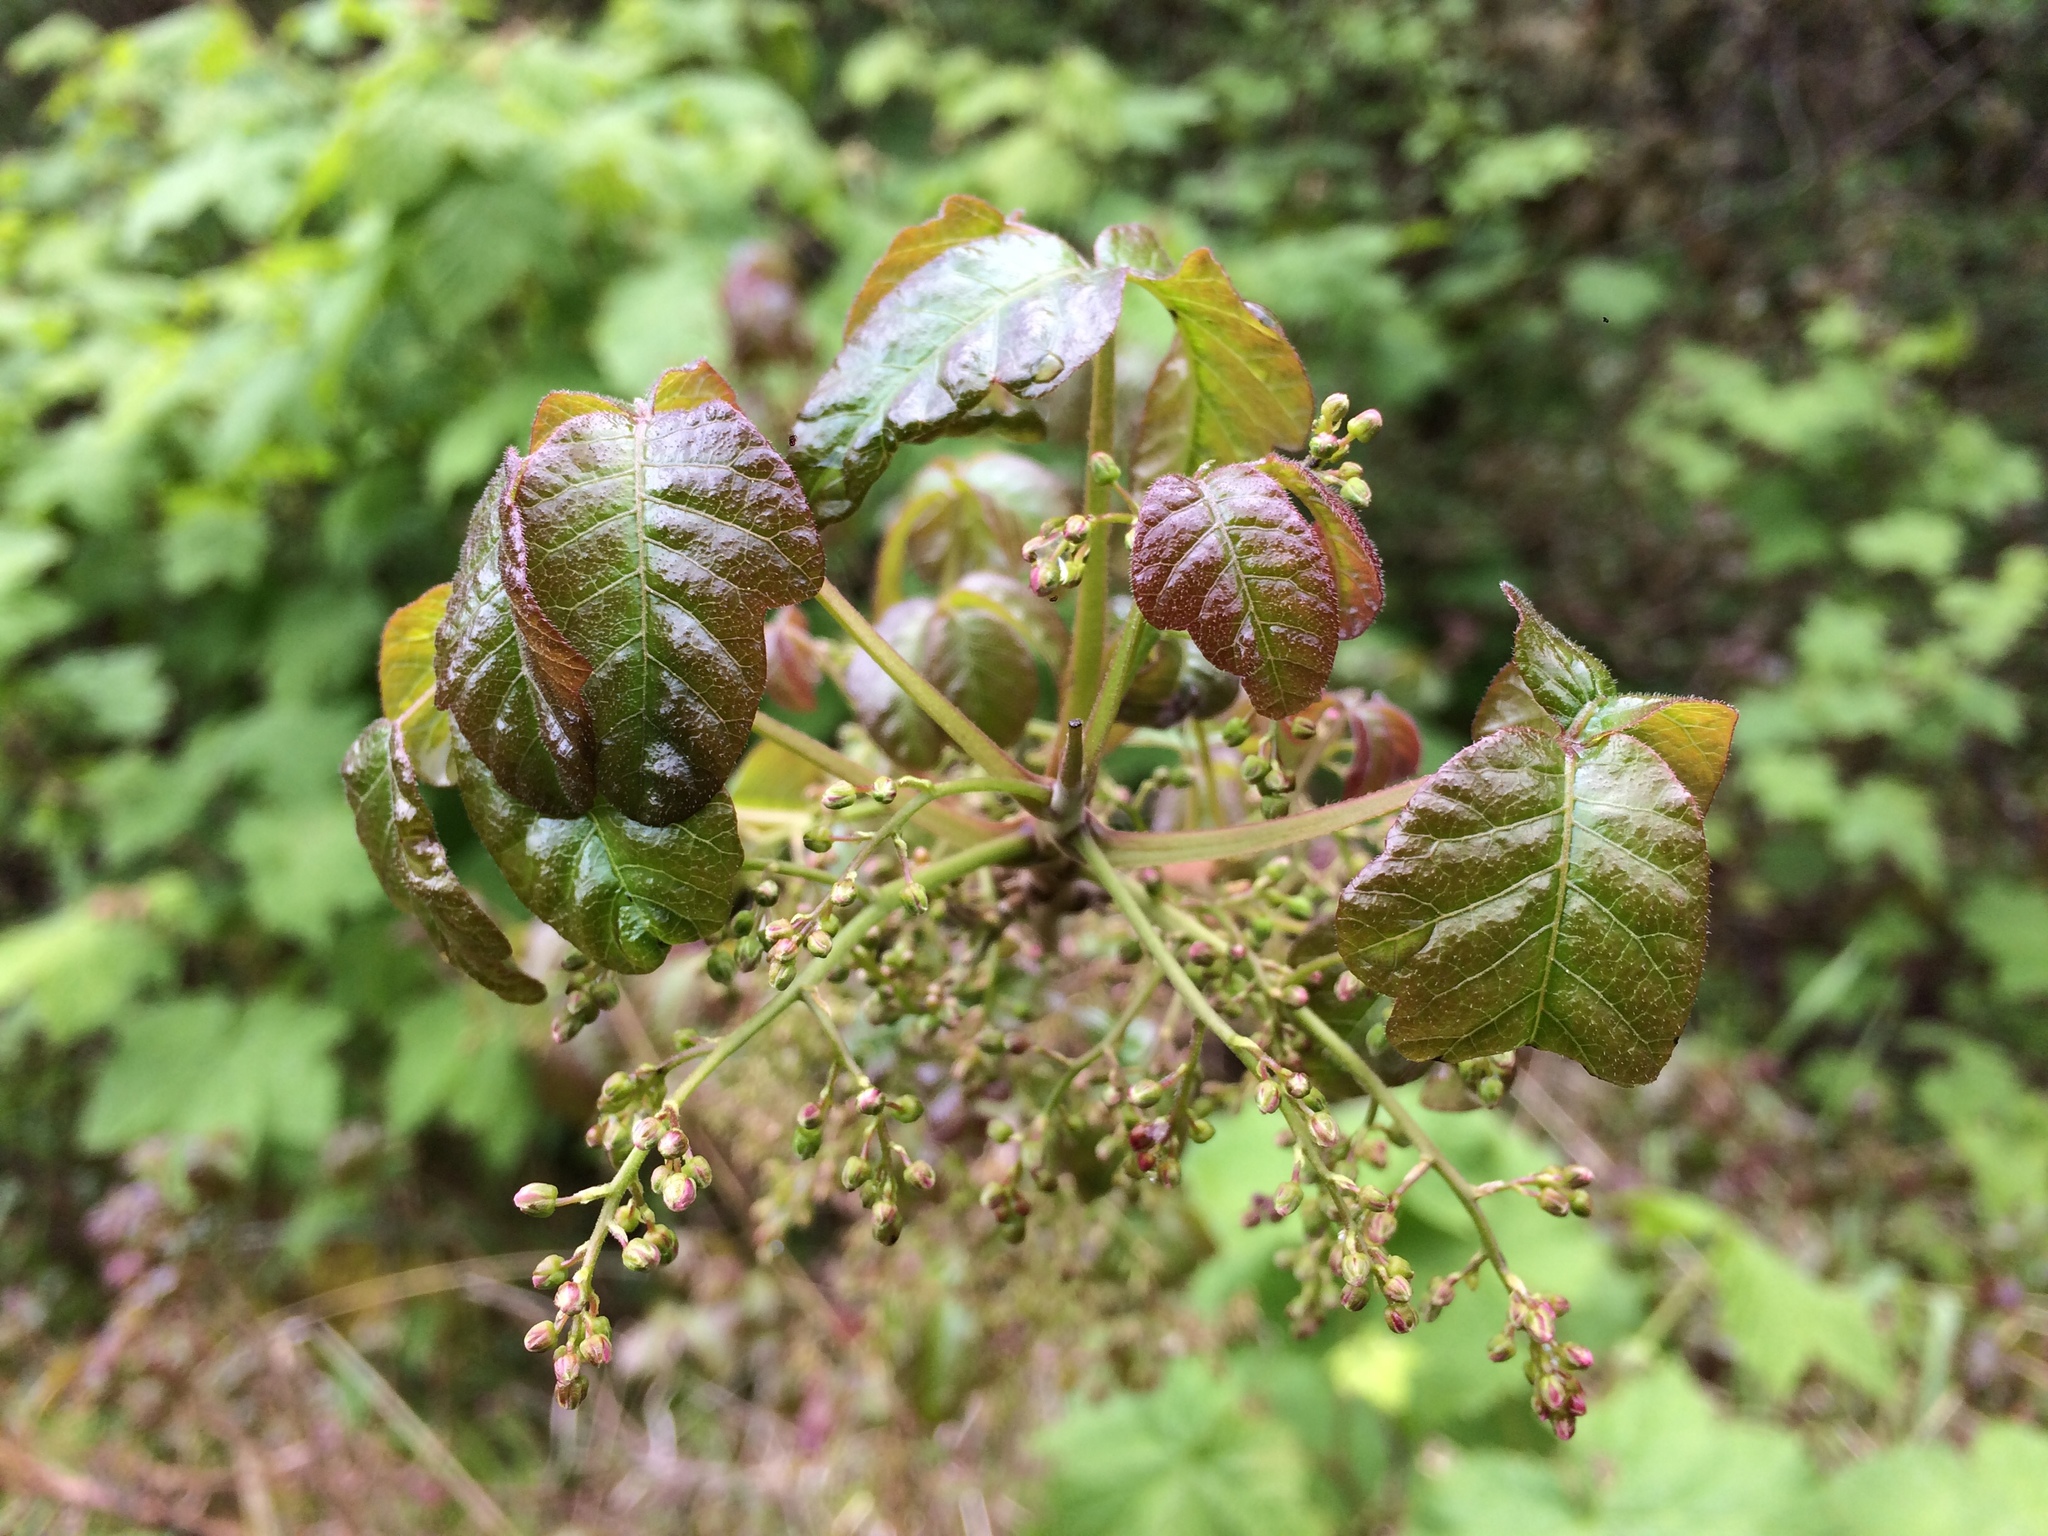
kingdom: Plantae
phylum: Tracheophyta
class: Magnoliopsida
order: Sapindales
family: Anacardiaceae
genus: Toxicodendron
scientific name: Toxicodendron diversilobum
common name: Pacific poison-oak
